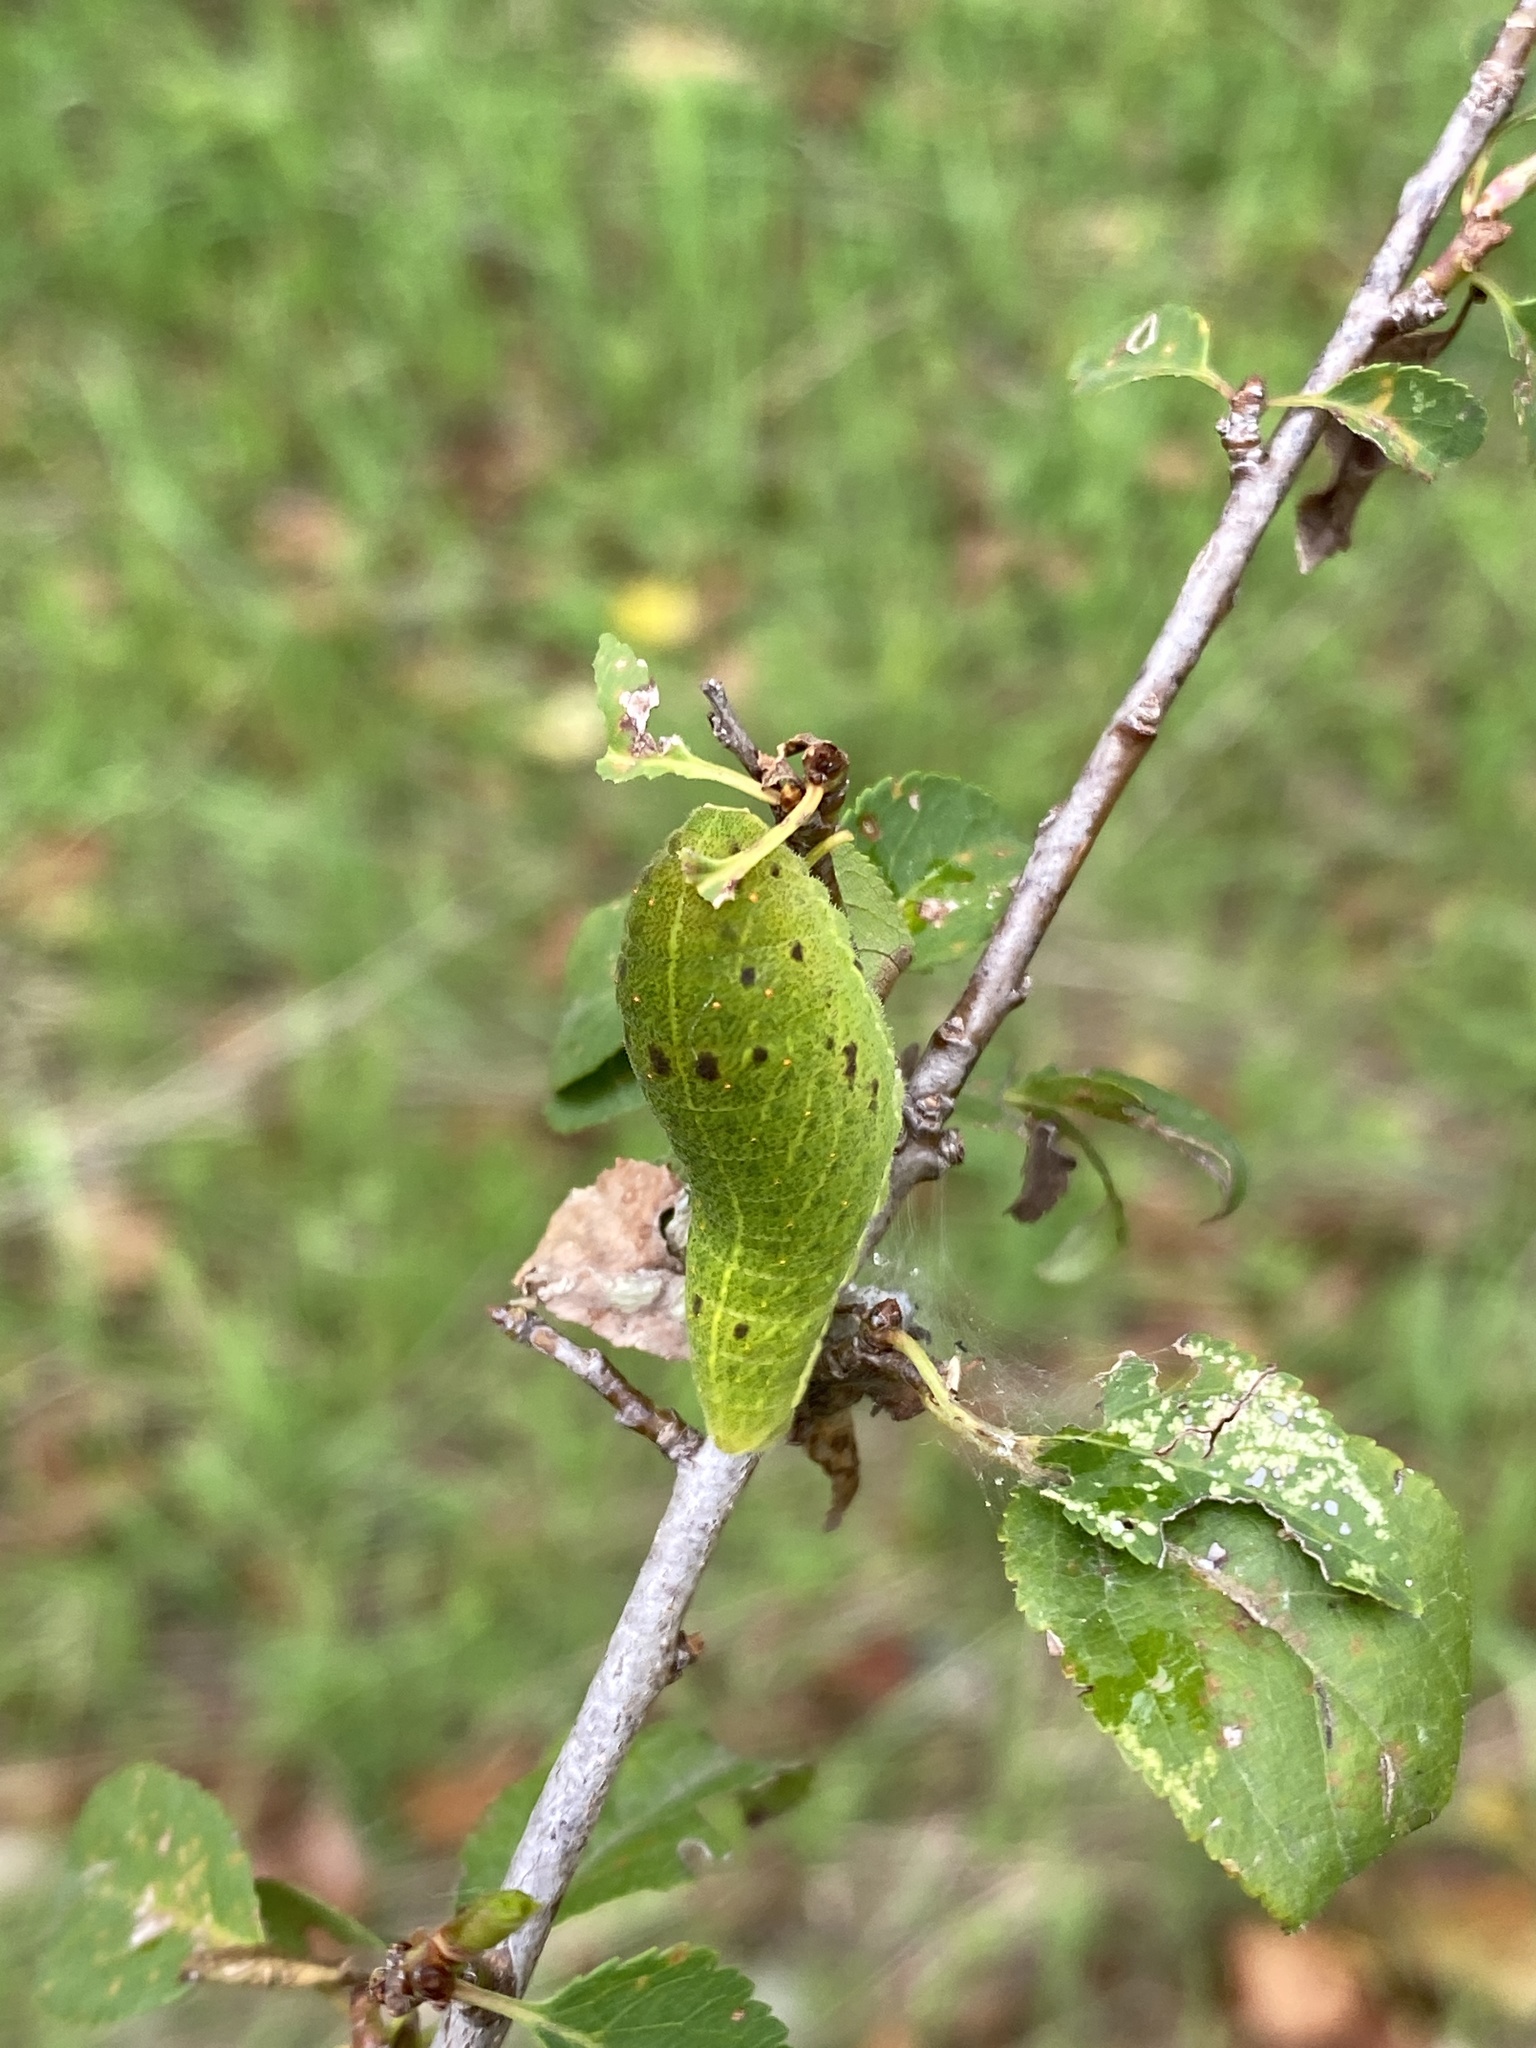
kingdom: Animalia
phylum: Arthropoda
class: Insecta
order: Lepidoptera
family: Papilionidae
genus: Iphiclides
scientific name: Iphiclides podalirius
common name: Scarce swallowtail
